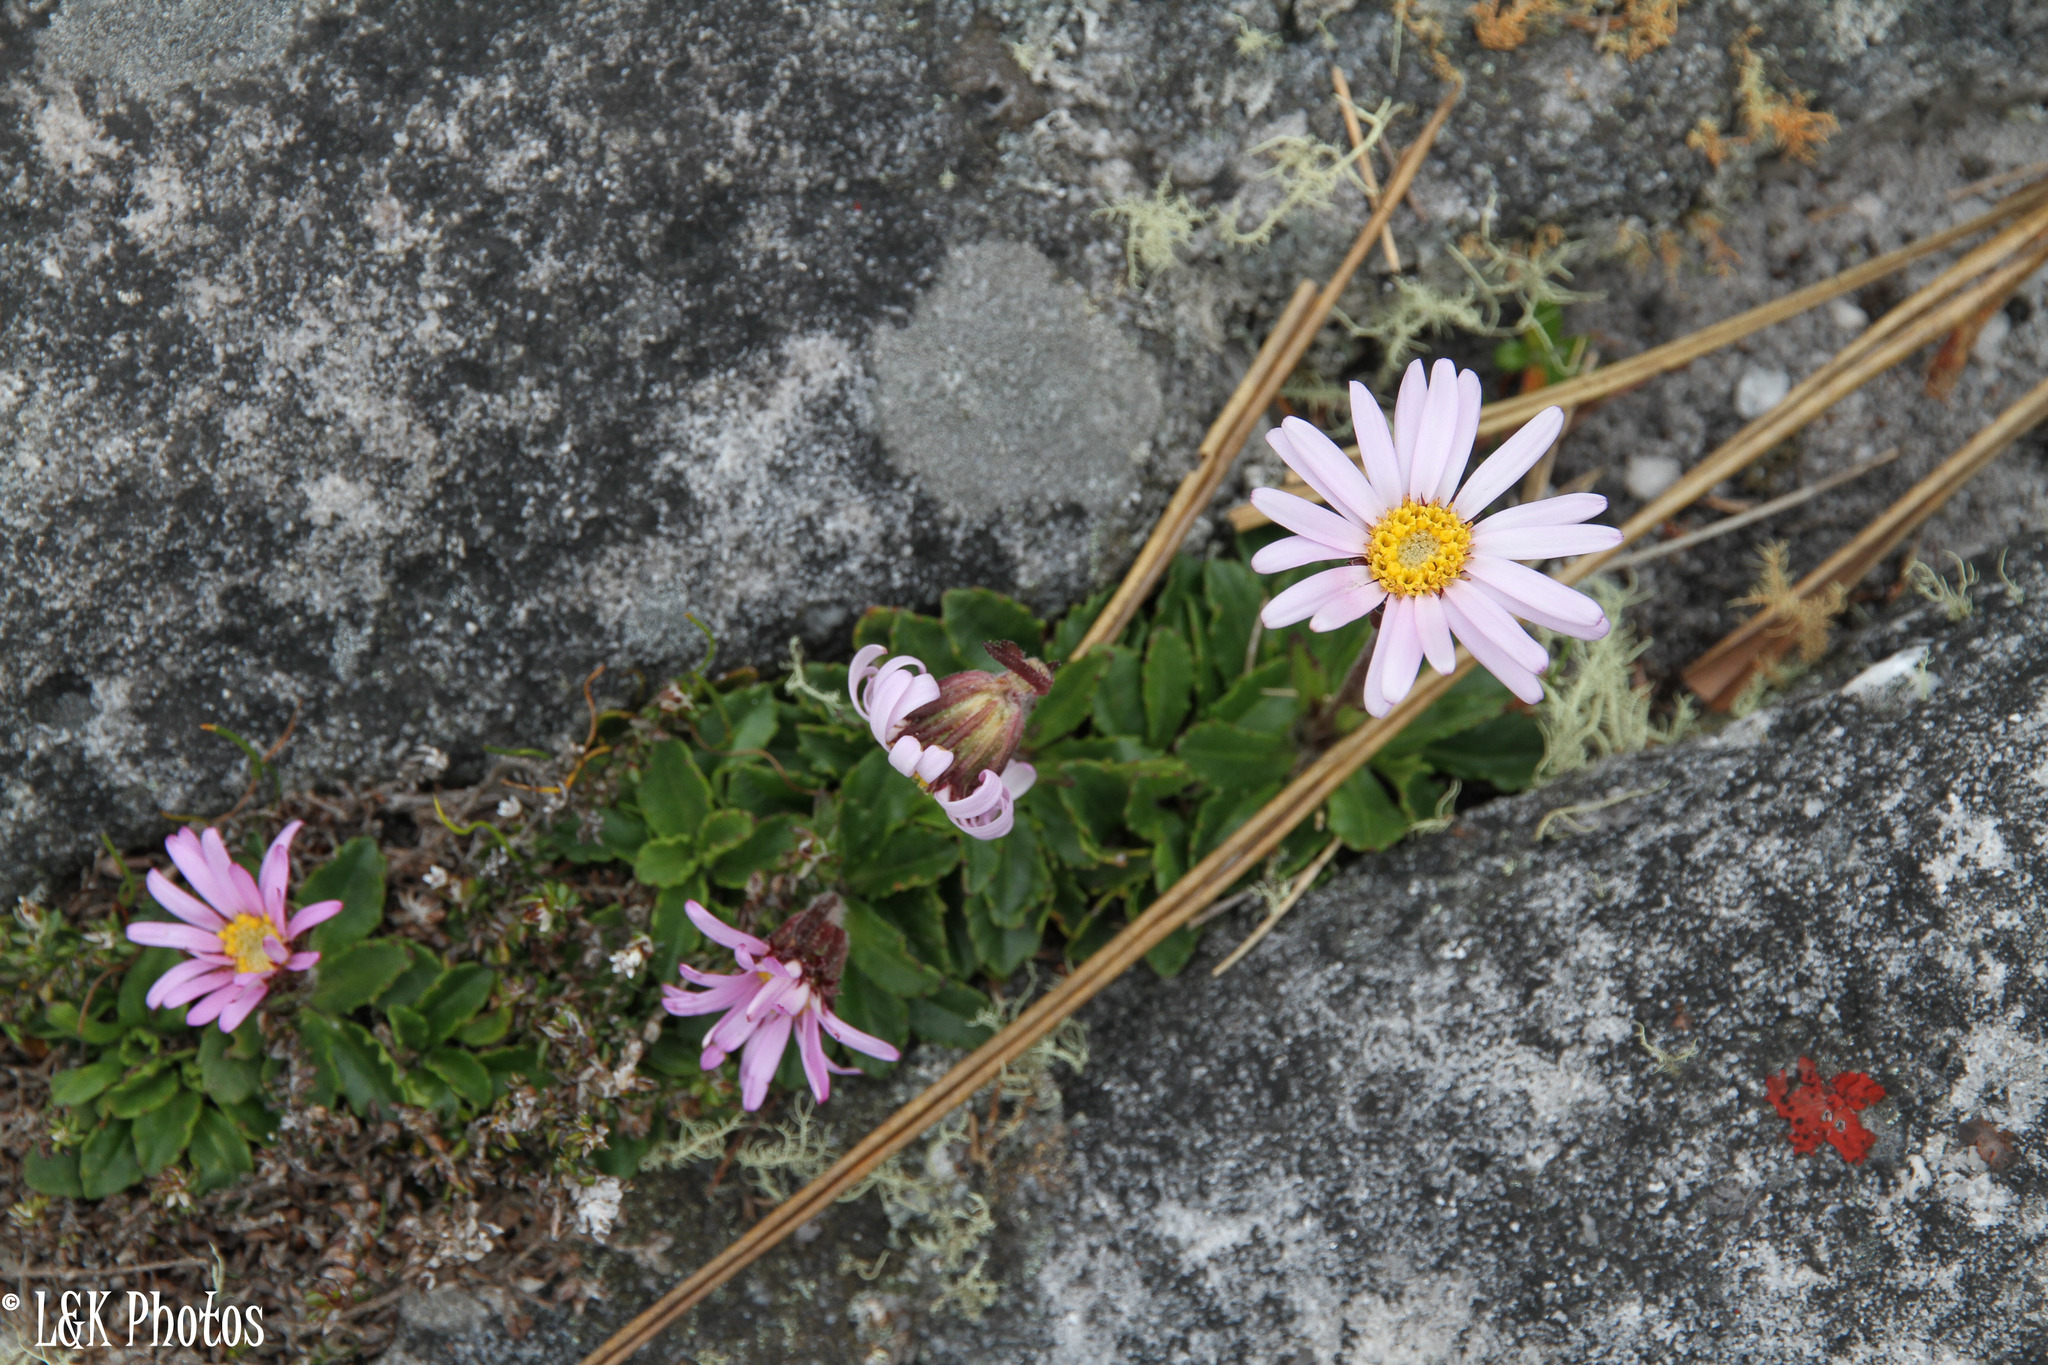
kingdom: Plantae
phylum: Tracheophyta
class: Magnoliopsida
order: Asterales
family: Asteraceae
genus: Zyrphelis
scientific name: Zyrphelis crenata
